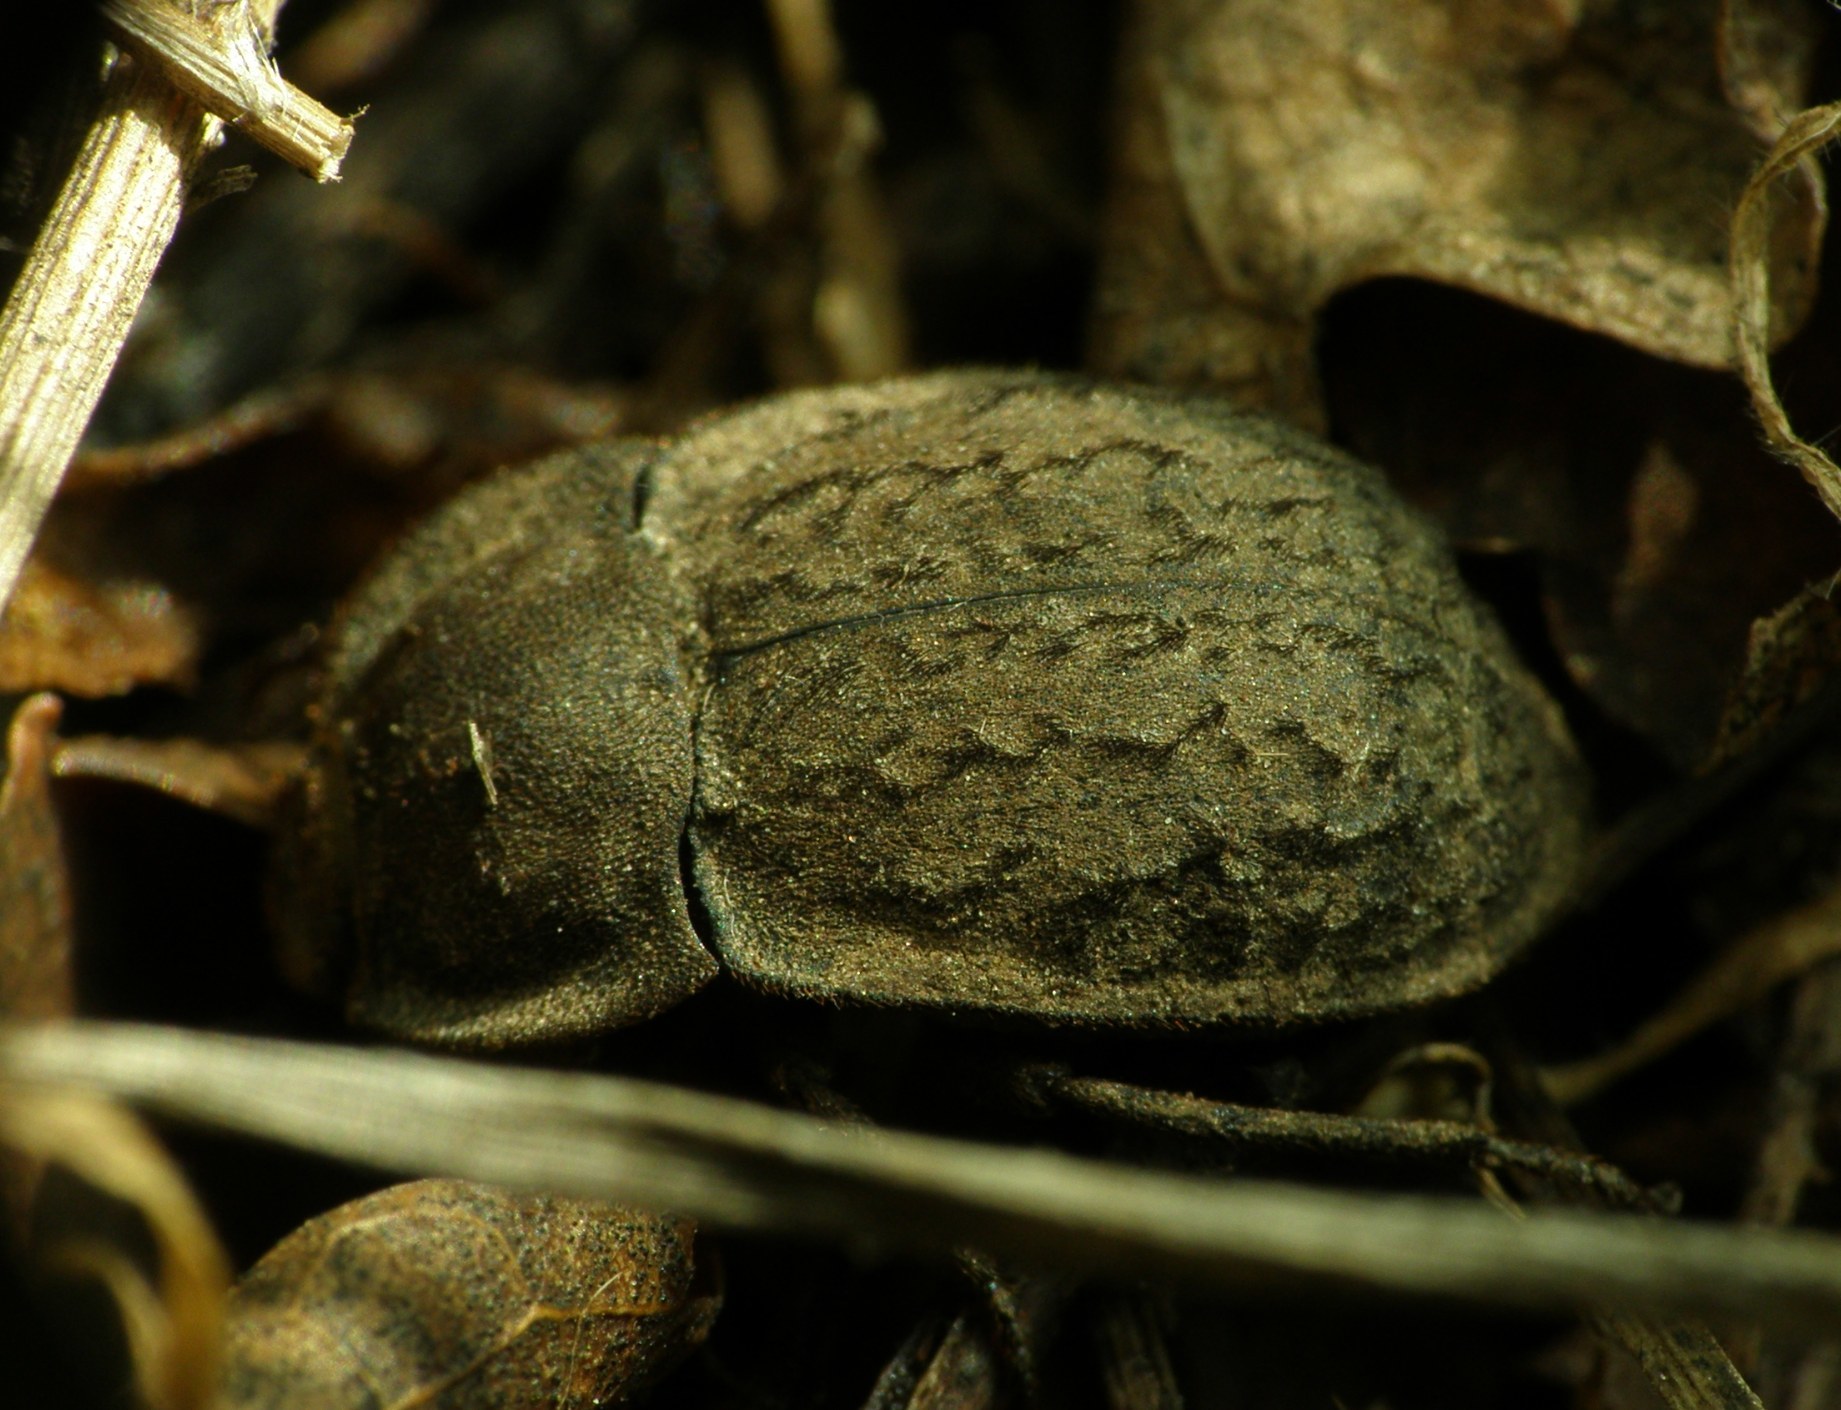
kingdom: Animalia
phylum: Arthropoda
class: Insecta
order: Coleoptera
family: Tenebrionidae
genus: Asida
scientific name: Asida lutosa
